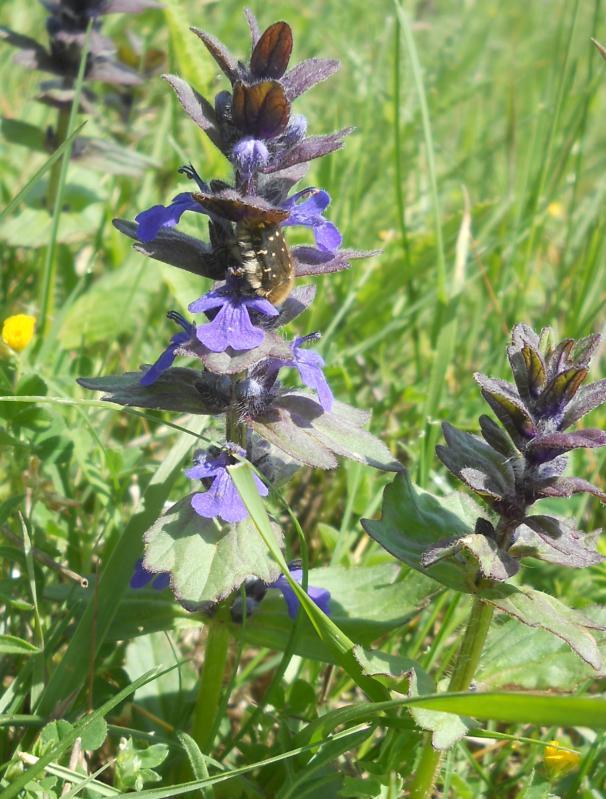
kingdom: Plantae
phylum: Tracheophyta
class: Magnoliopsida
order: Lamiales
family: Lamiaceae
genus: Ajuga
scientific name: Ajuga genevensis
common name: Blue bugle
